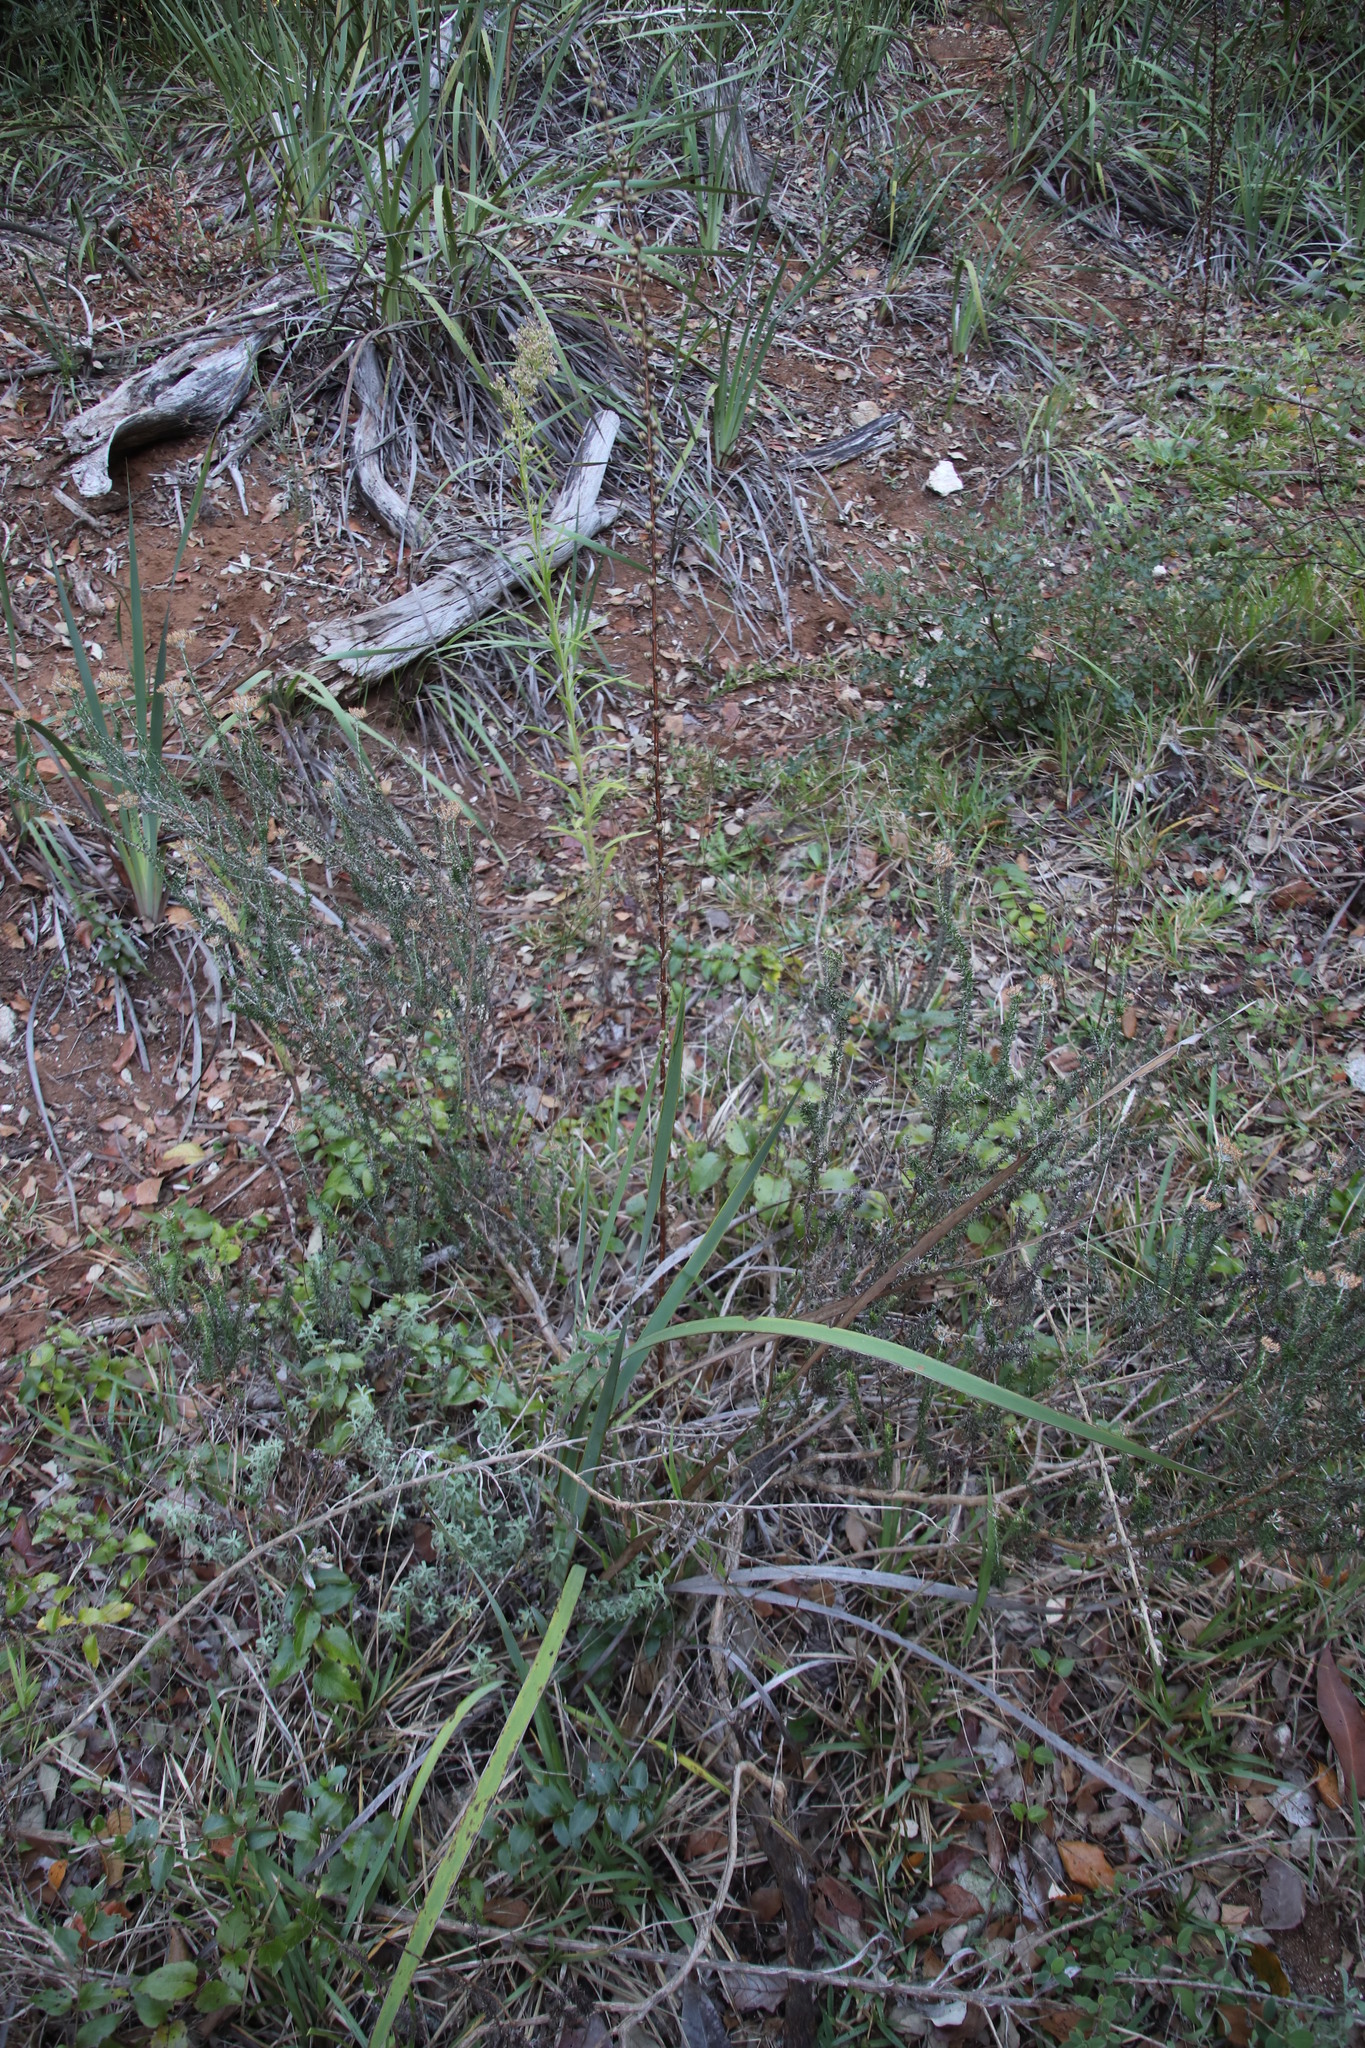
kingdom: Plantae
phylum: Tracheophyta
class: Magnoliopsida
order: Lamiales
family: Scrophulariaceae
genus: Verbascum
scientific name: Verbascum virgatum
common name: Twiggy mullein
